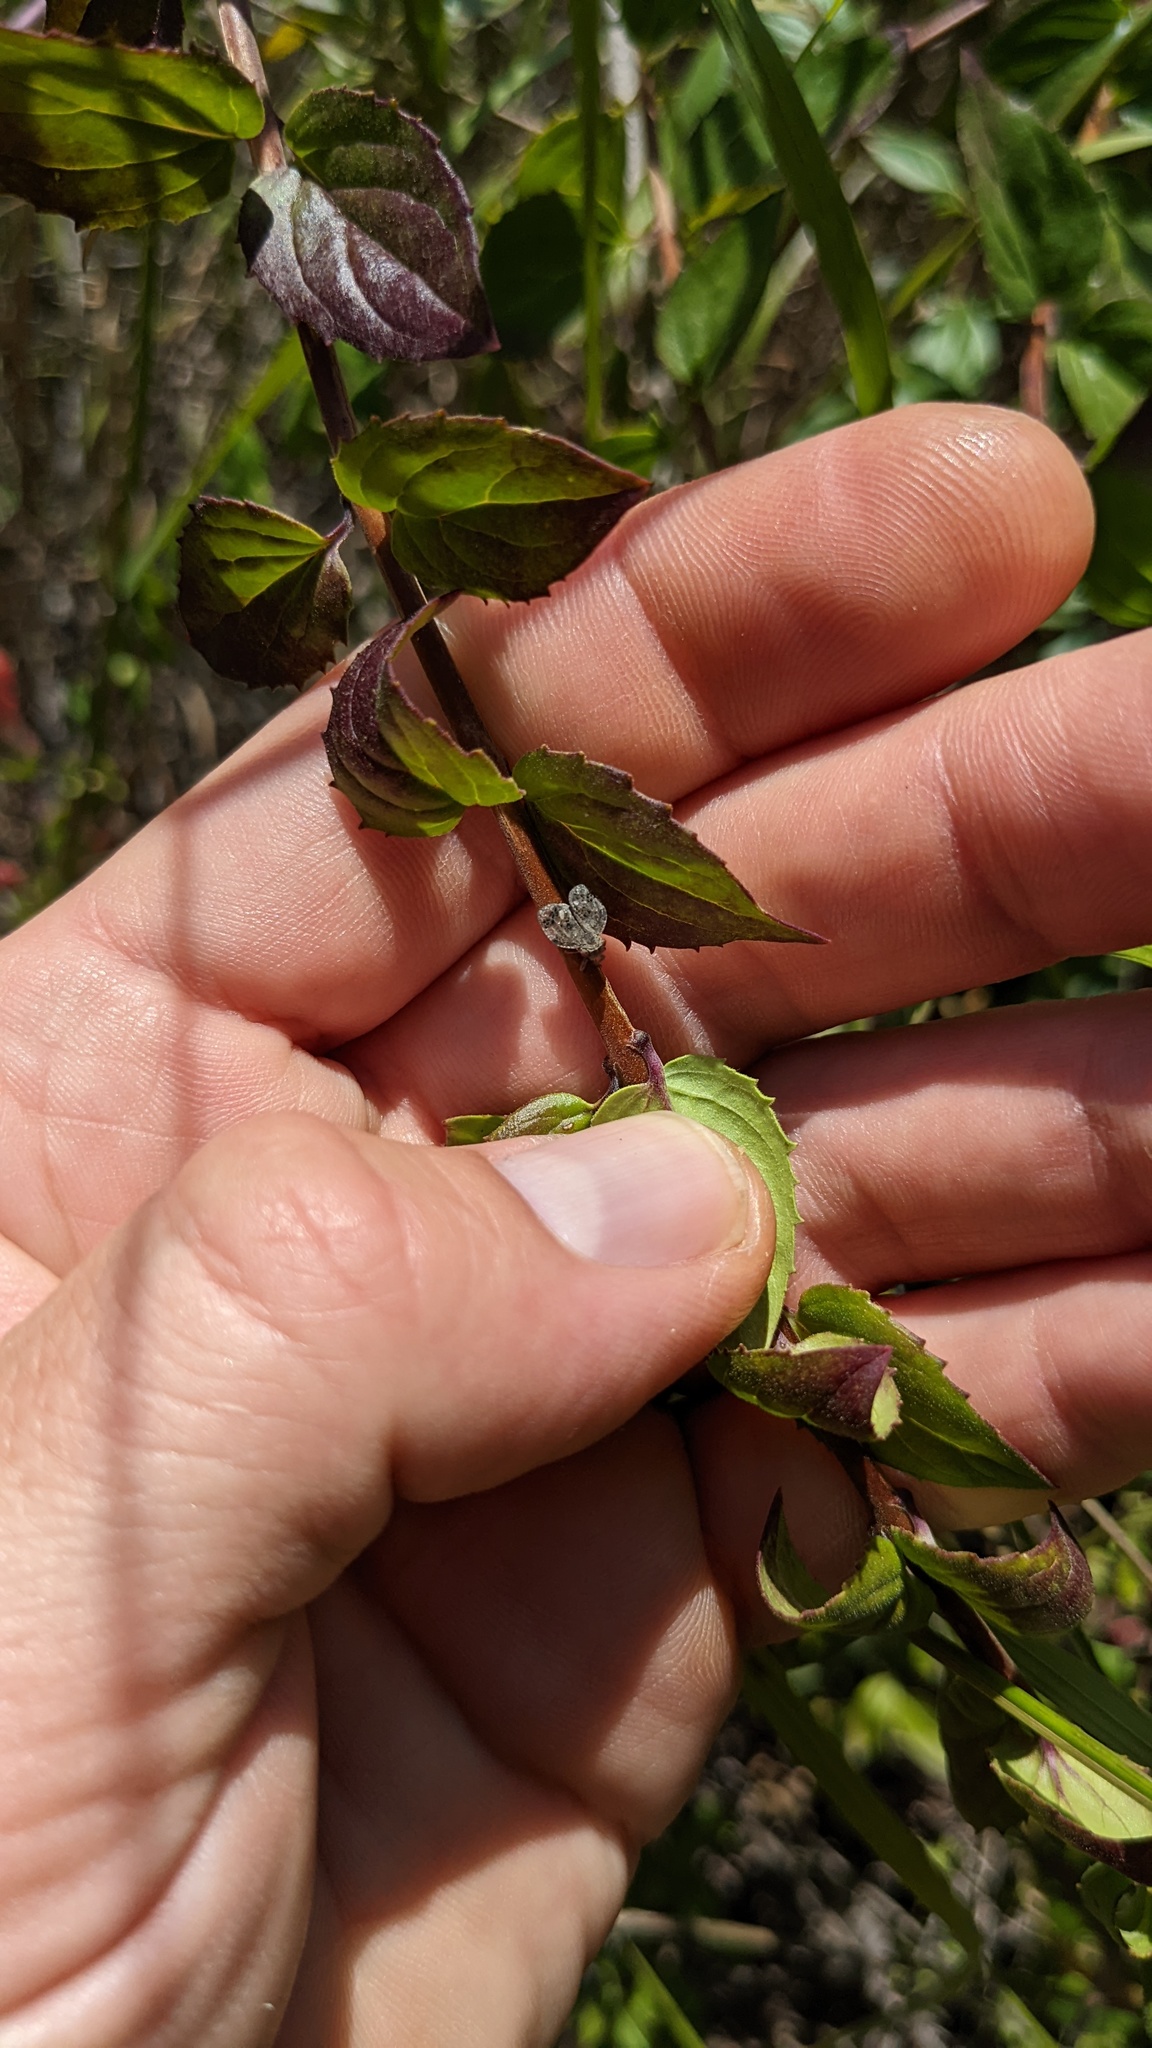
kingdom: Plantae
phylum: Tracheophyta
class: Magnoliopsida
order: Lamiales
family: Plantaginaceae
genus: Keckiella
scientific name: Keckiella cordifolia
